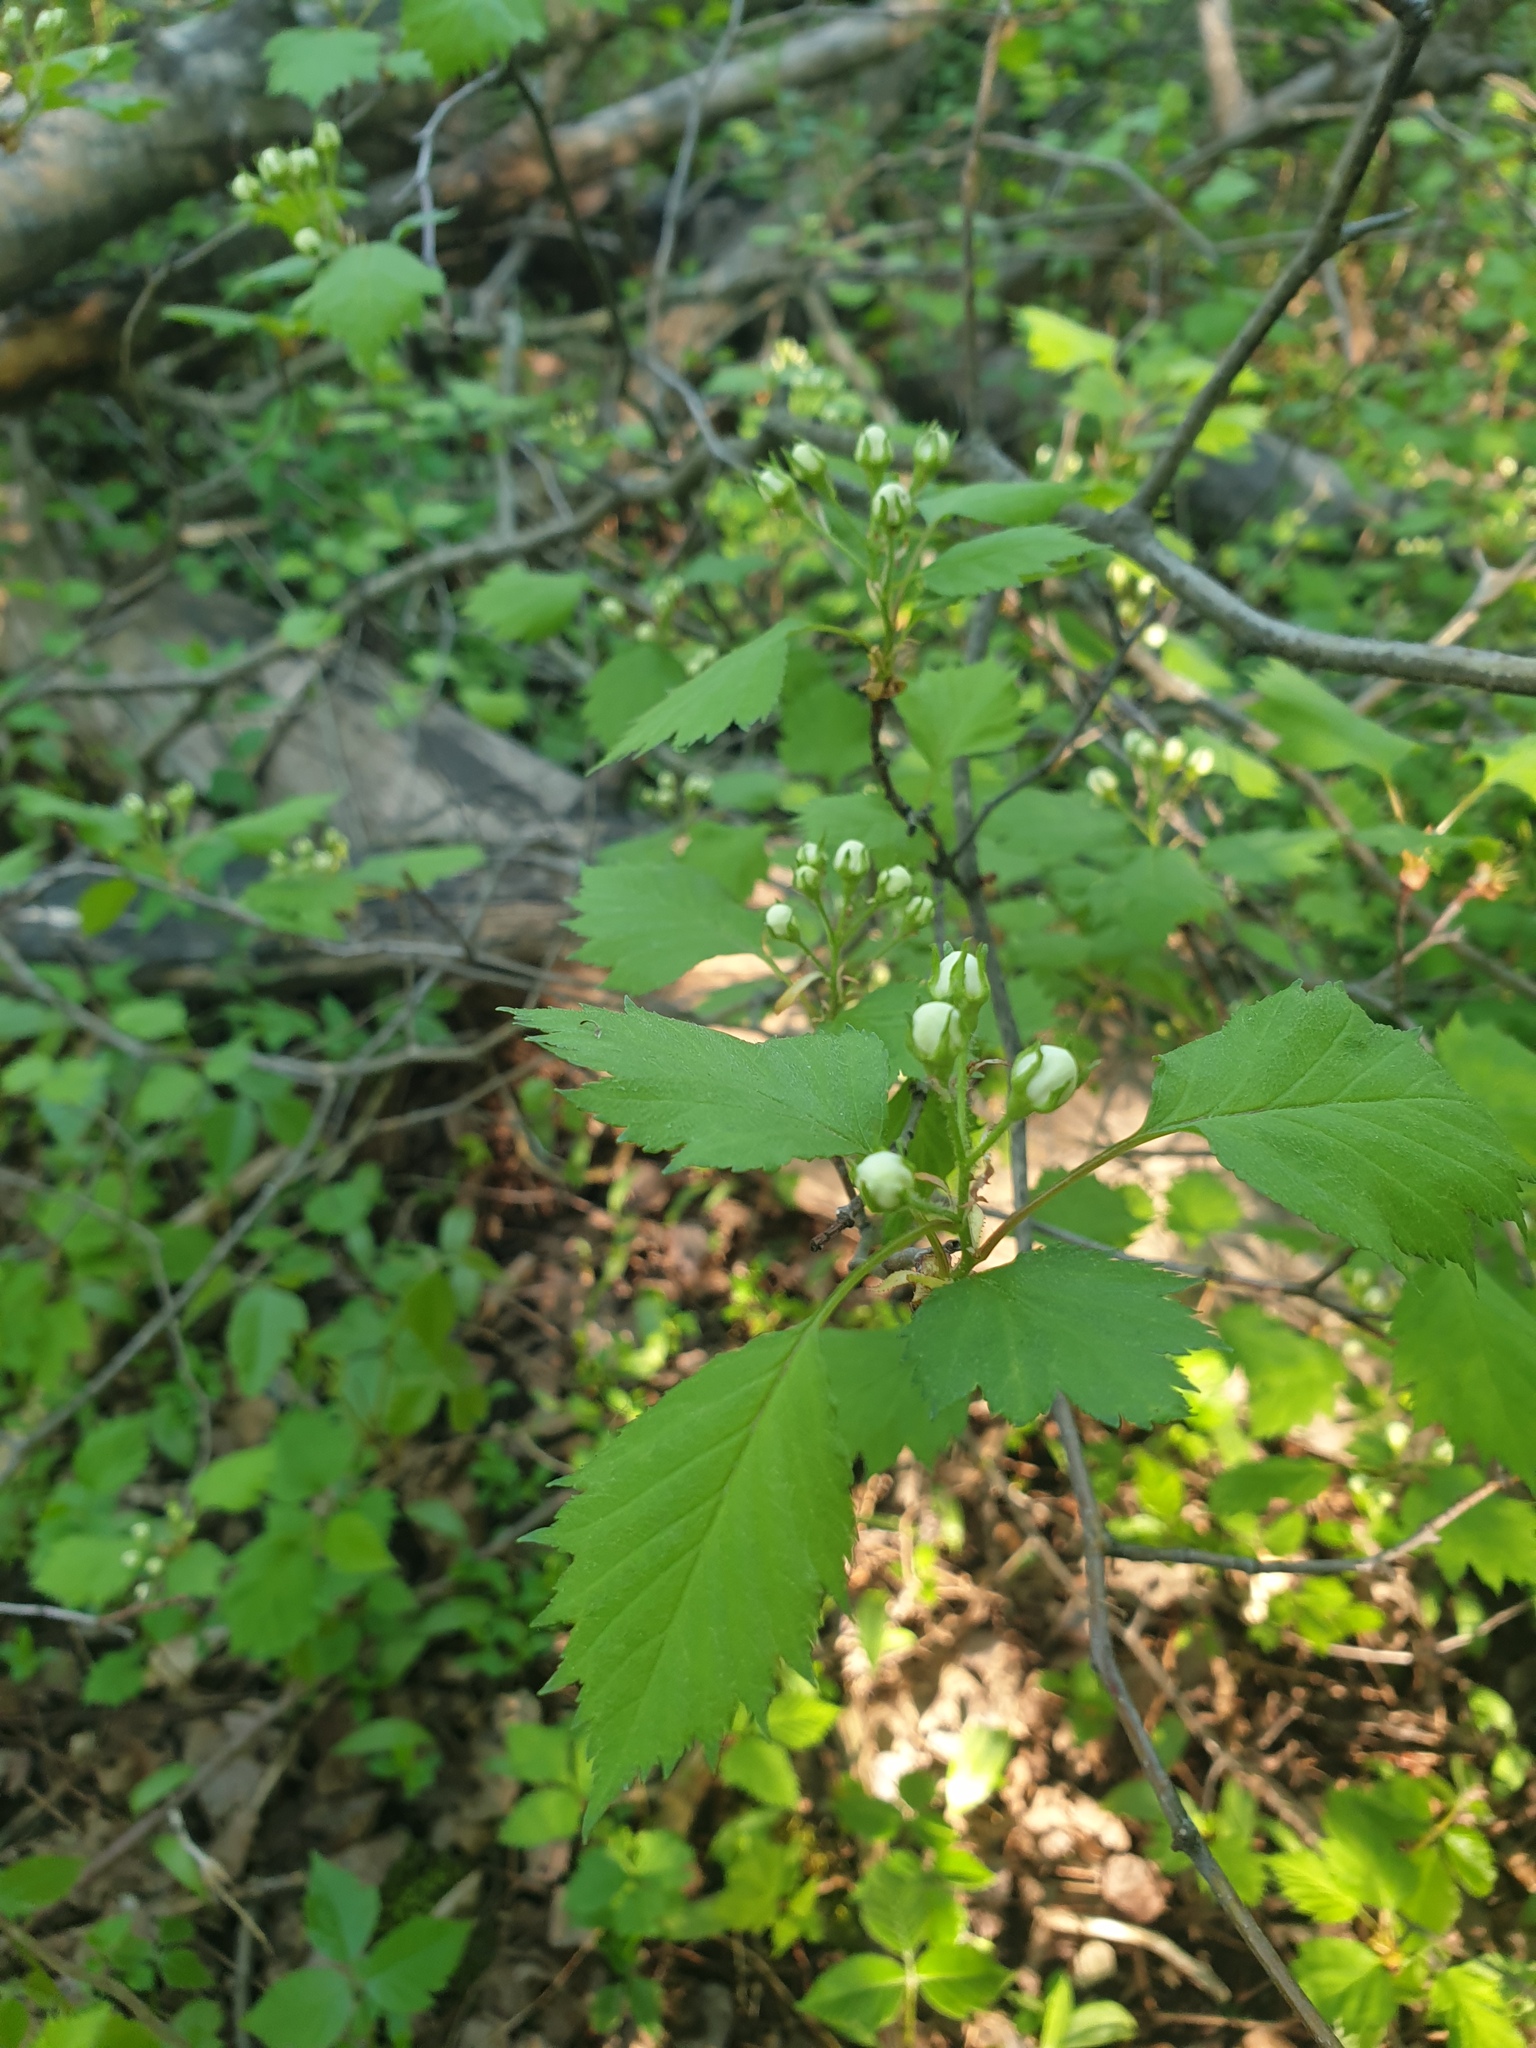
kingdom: Plantae
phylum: Tracheophyta
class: Magnoliopsida
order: Rosales
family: Rosaceae
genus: Crataegus
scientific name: Crataegus flabellata
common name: Bosc's hawthorn
